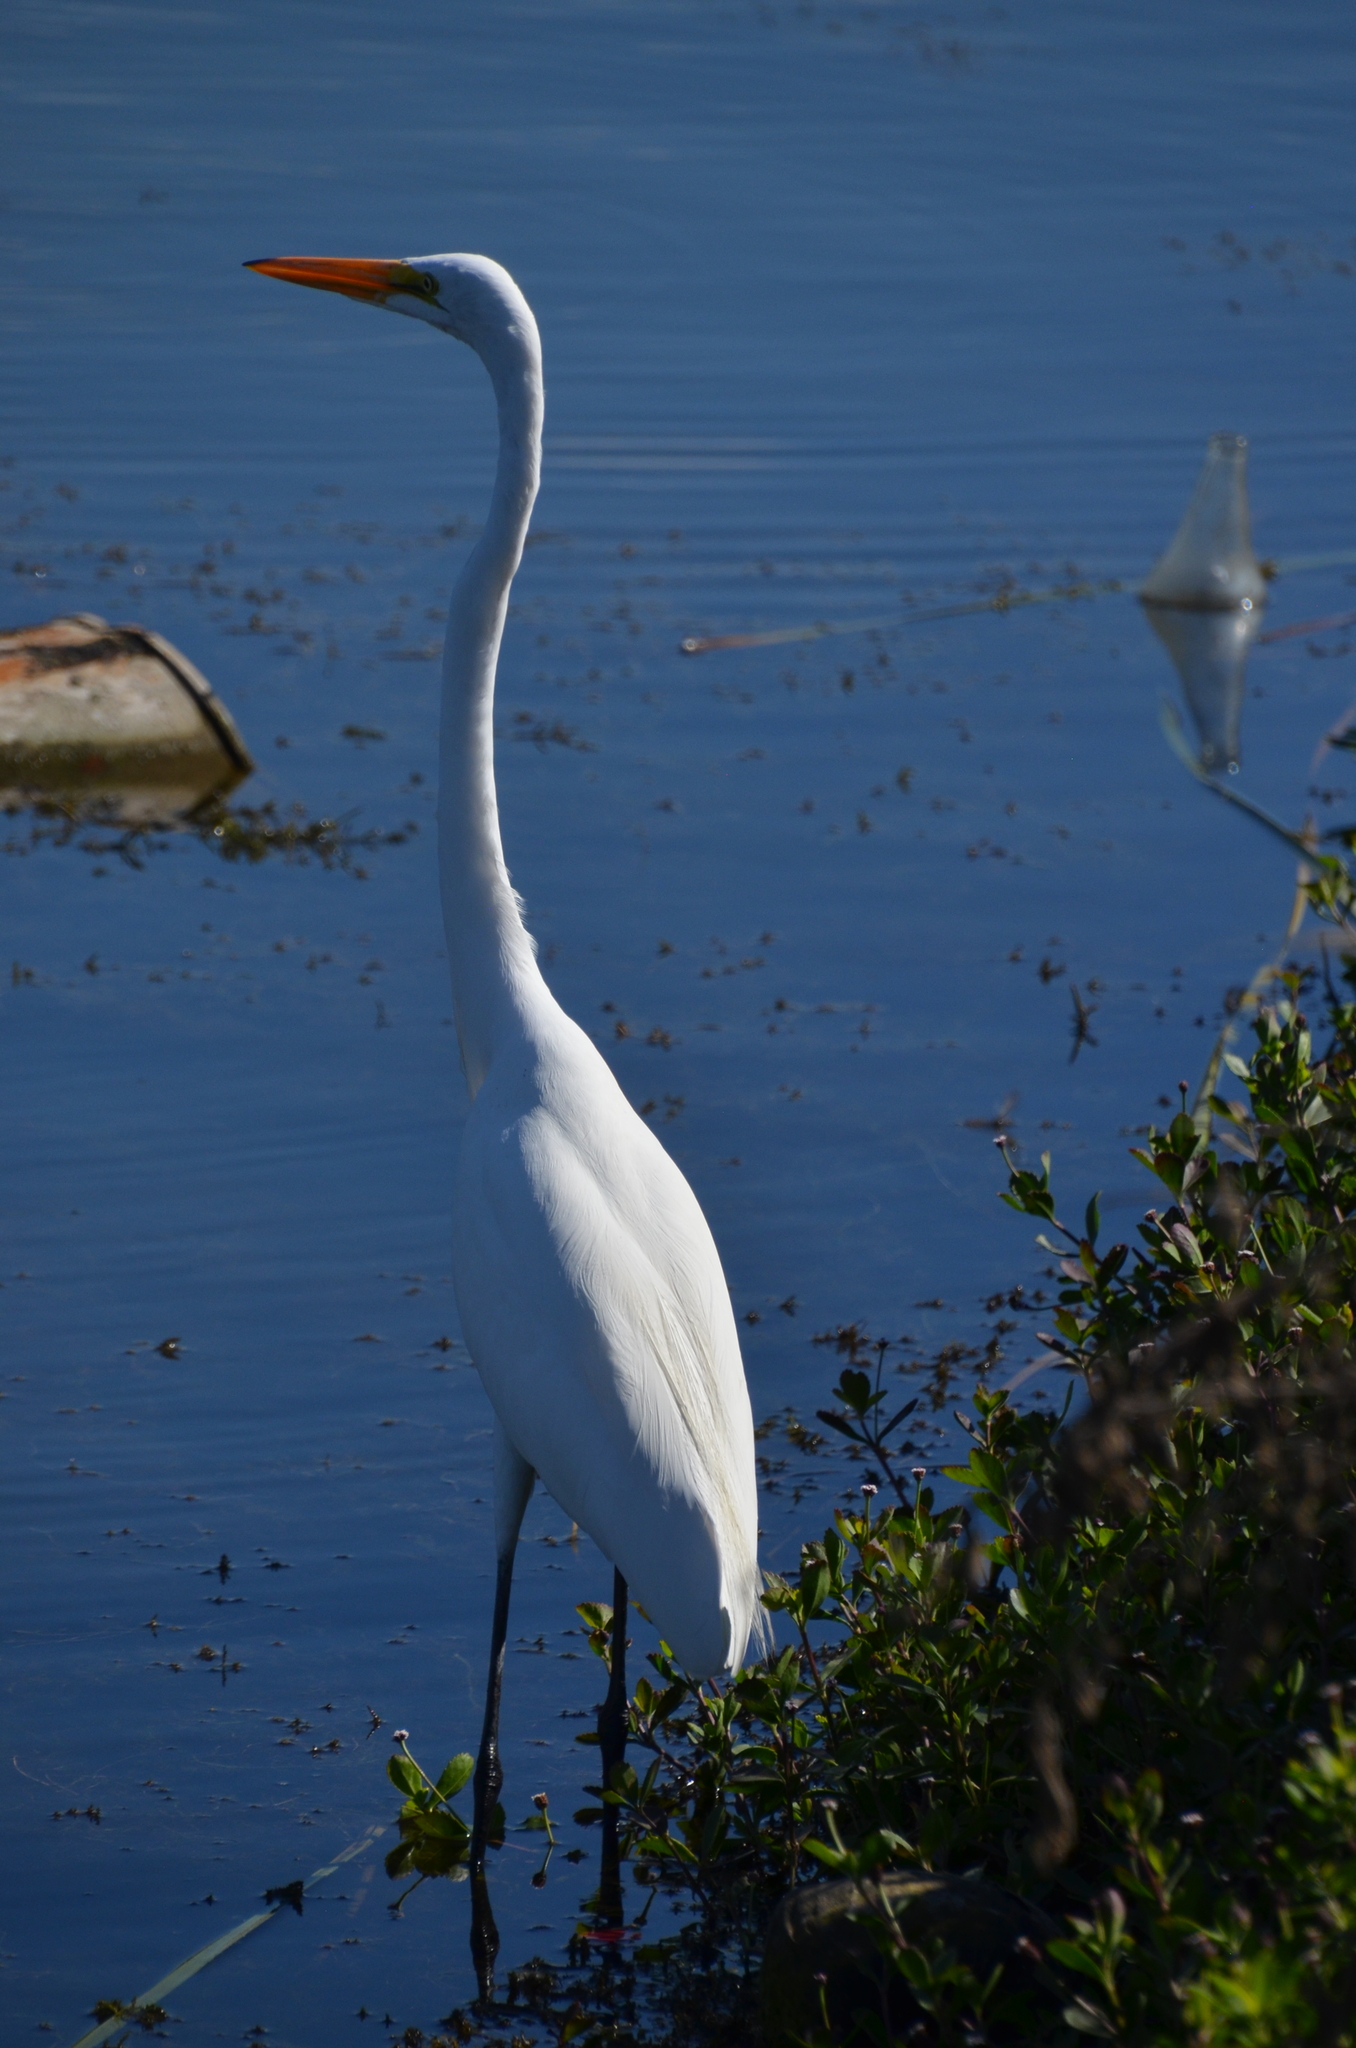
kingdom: Animalia
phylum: Chordata
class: Aves
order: Pelecaniformes
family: Ardeidae
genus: Ardea
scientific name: Ardea alba
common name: Great egret
